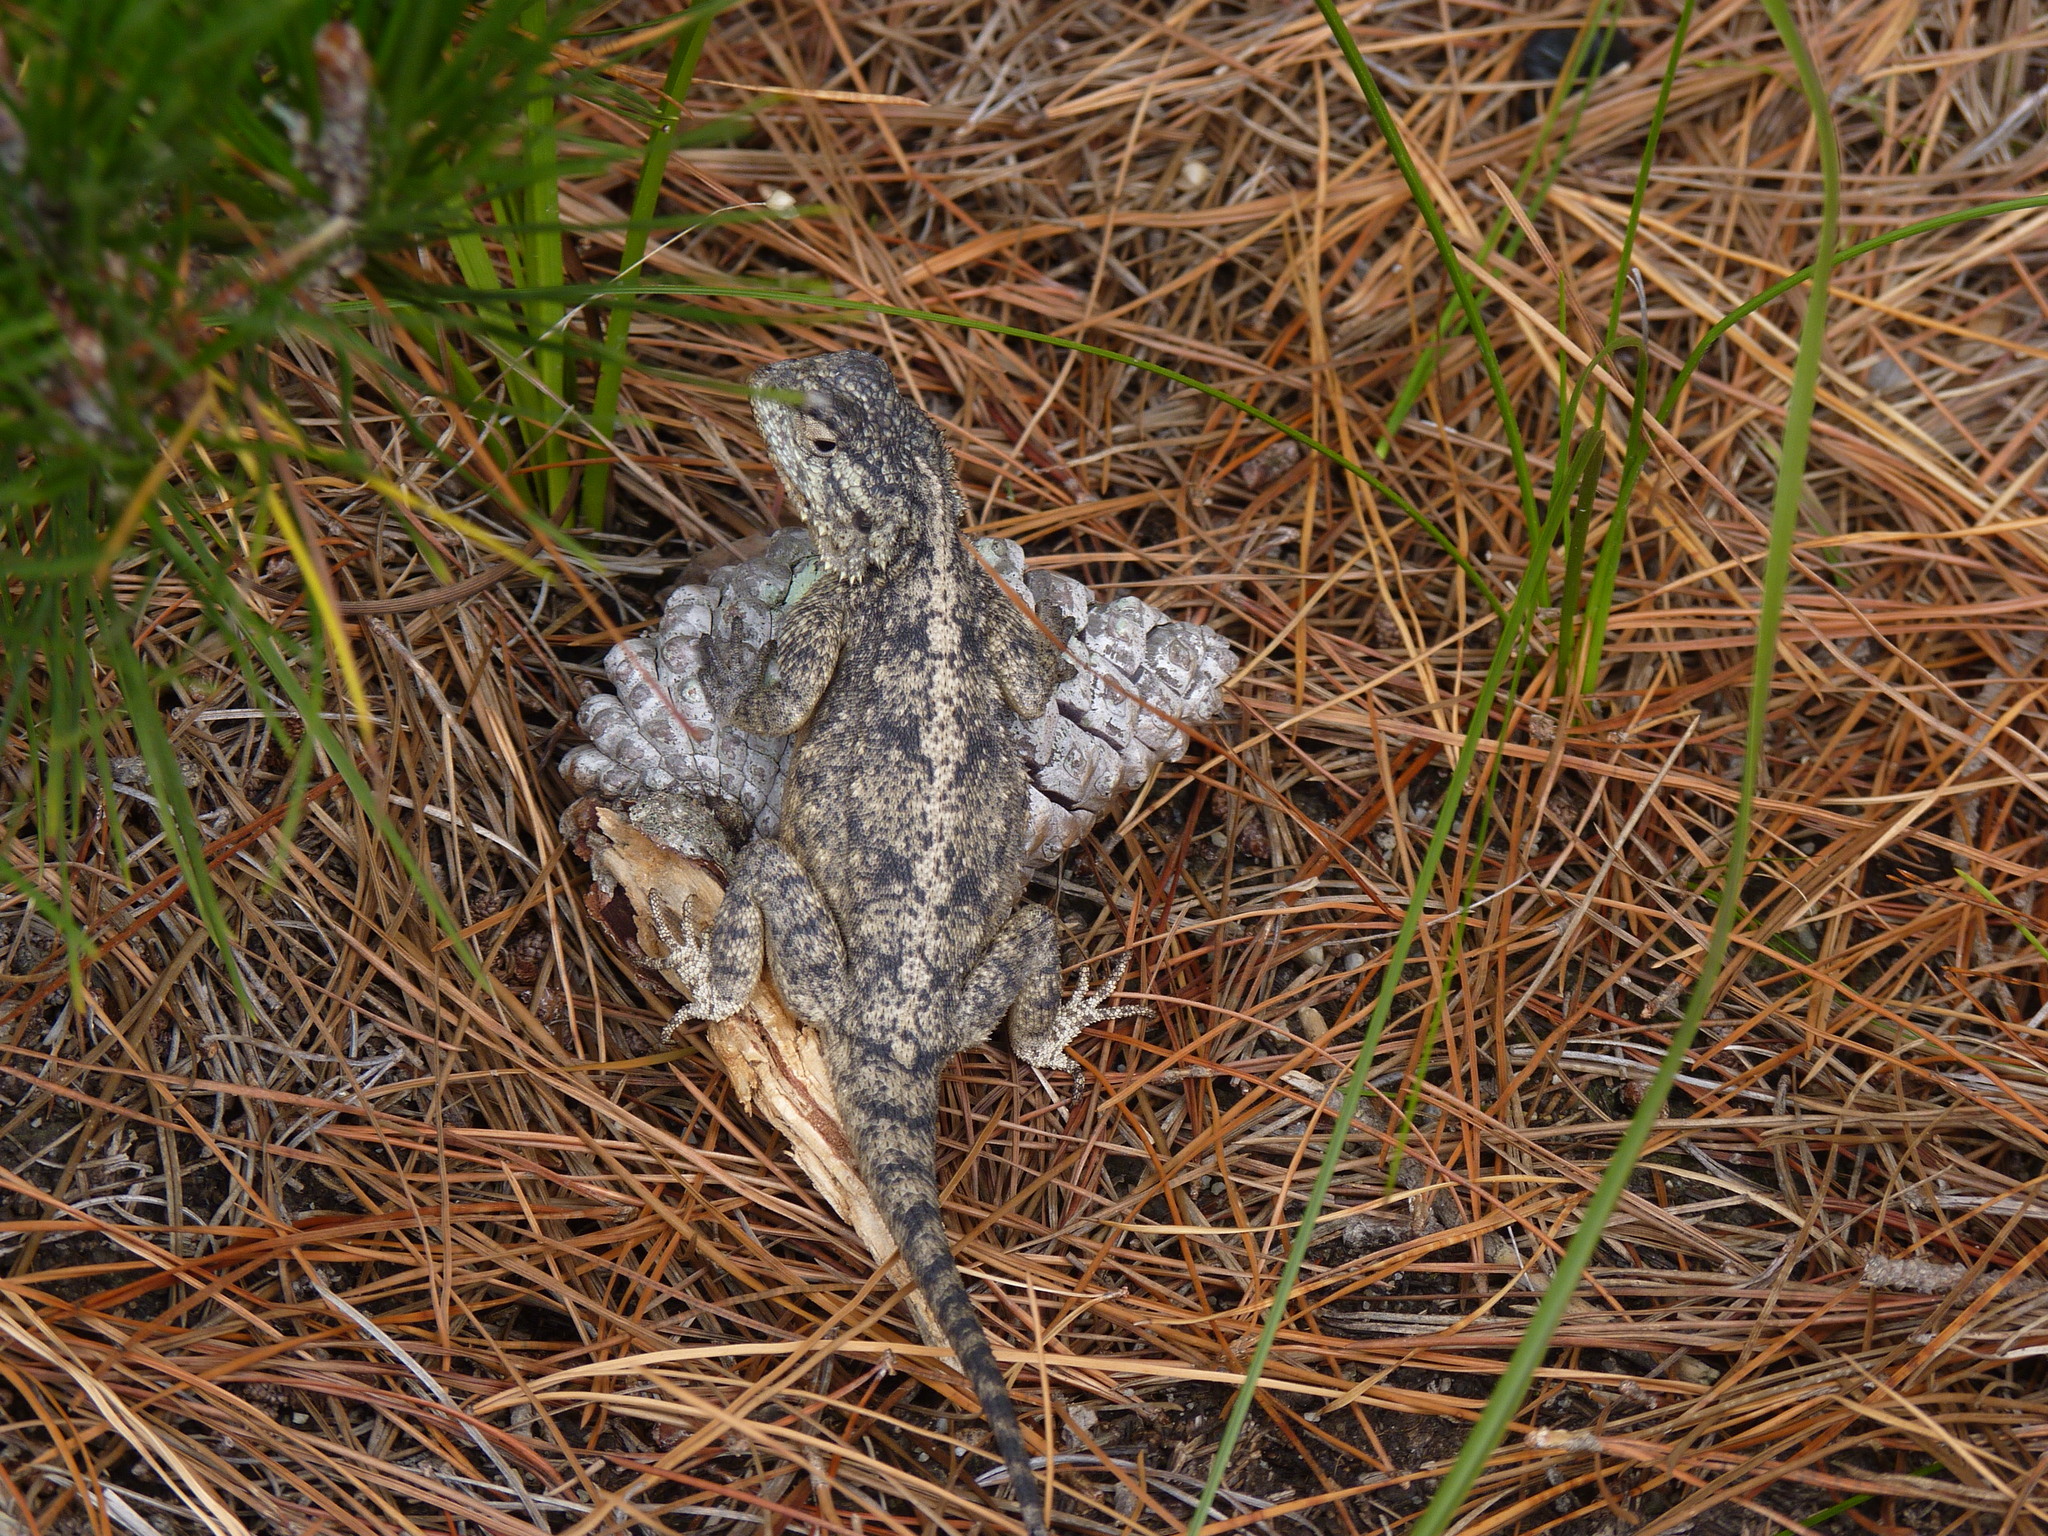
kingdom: Animalia
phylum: Chordata
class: Squamata
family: Agamidae
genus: Agama
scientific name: Agama atra
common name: Southern african rock agama
